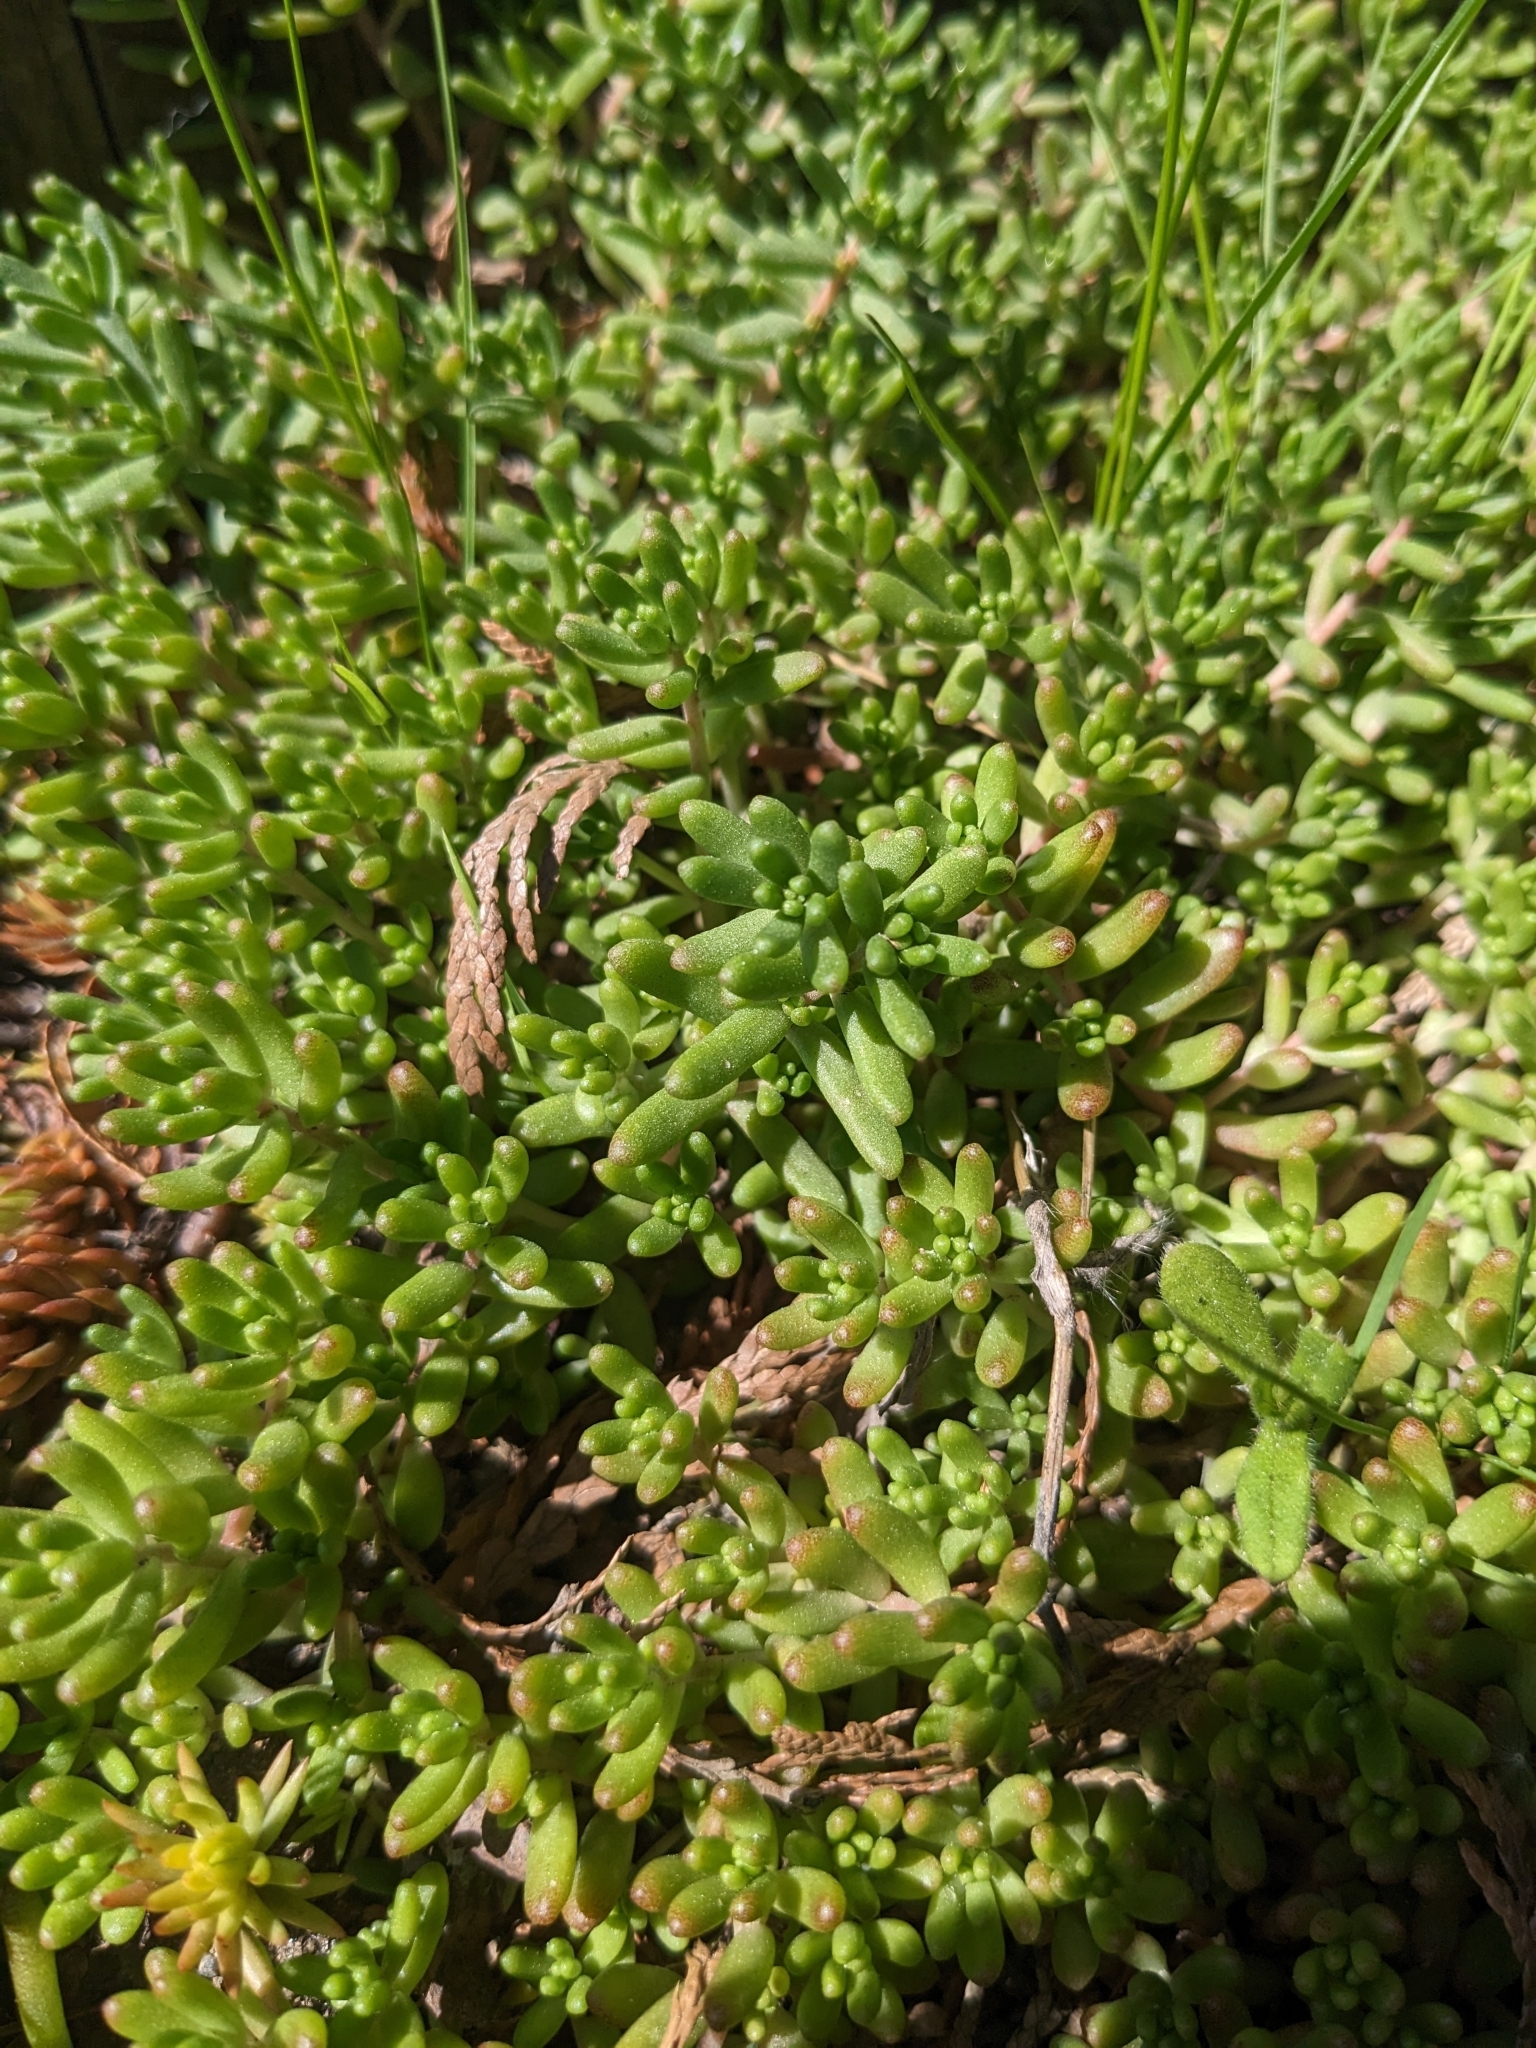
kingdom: Plantae
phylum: Tracheophyta
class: Magnoliopsida
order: Saxifragales
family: Crassulaceae
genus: Sedum
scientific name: Sedum album
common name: White stonecrop
